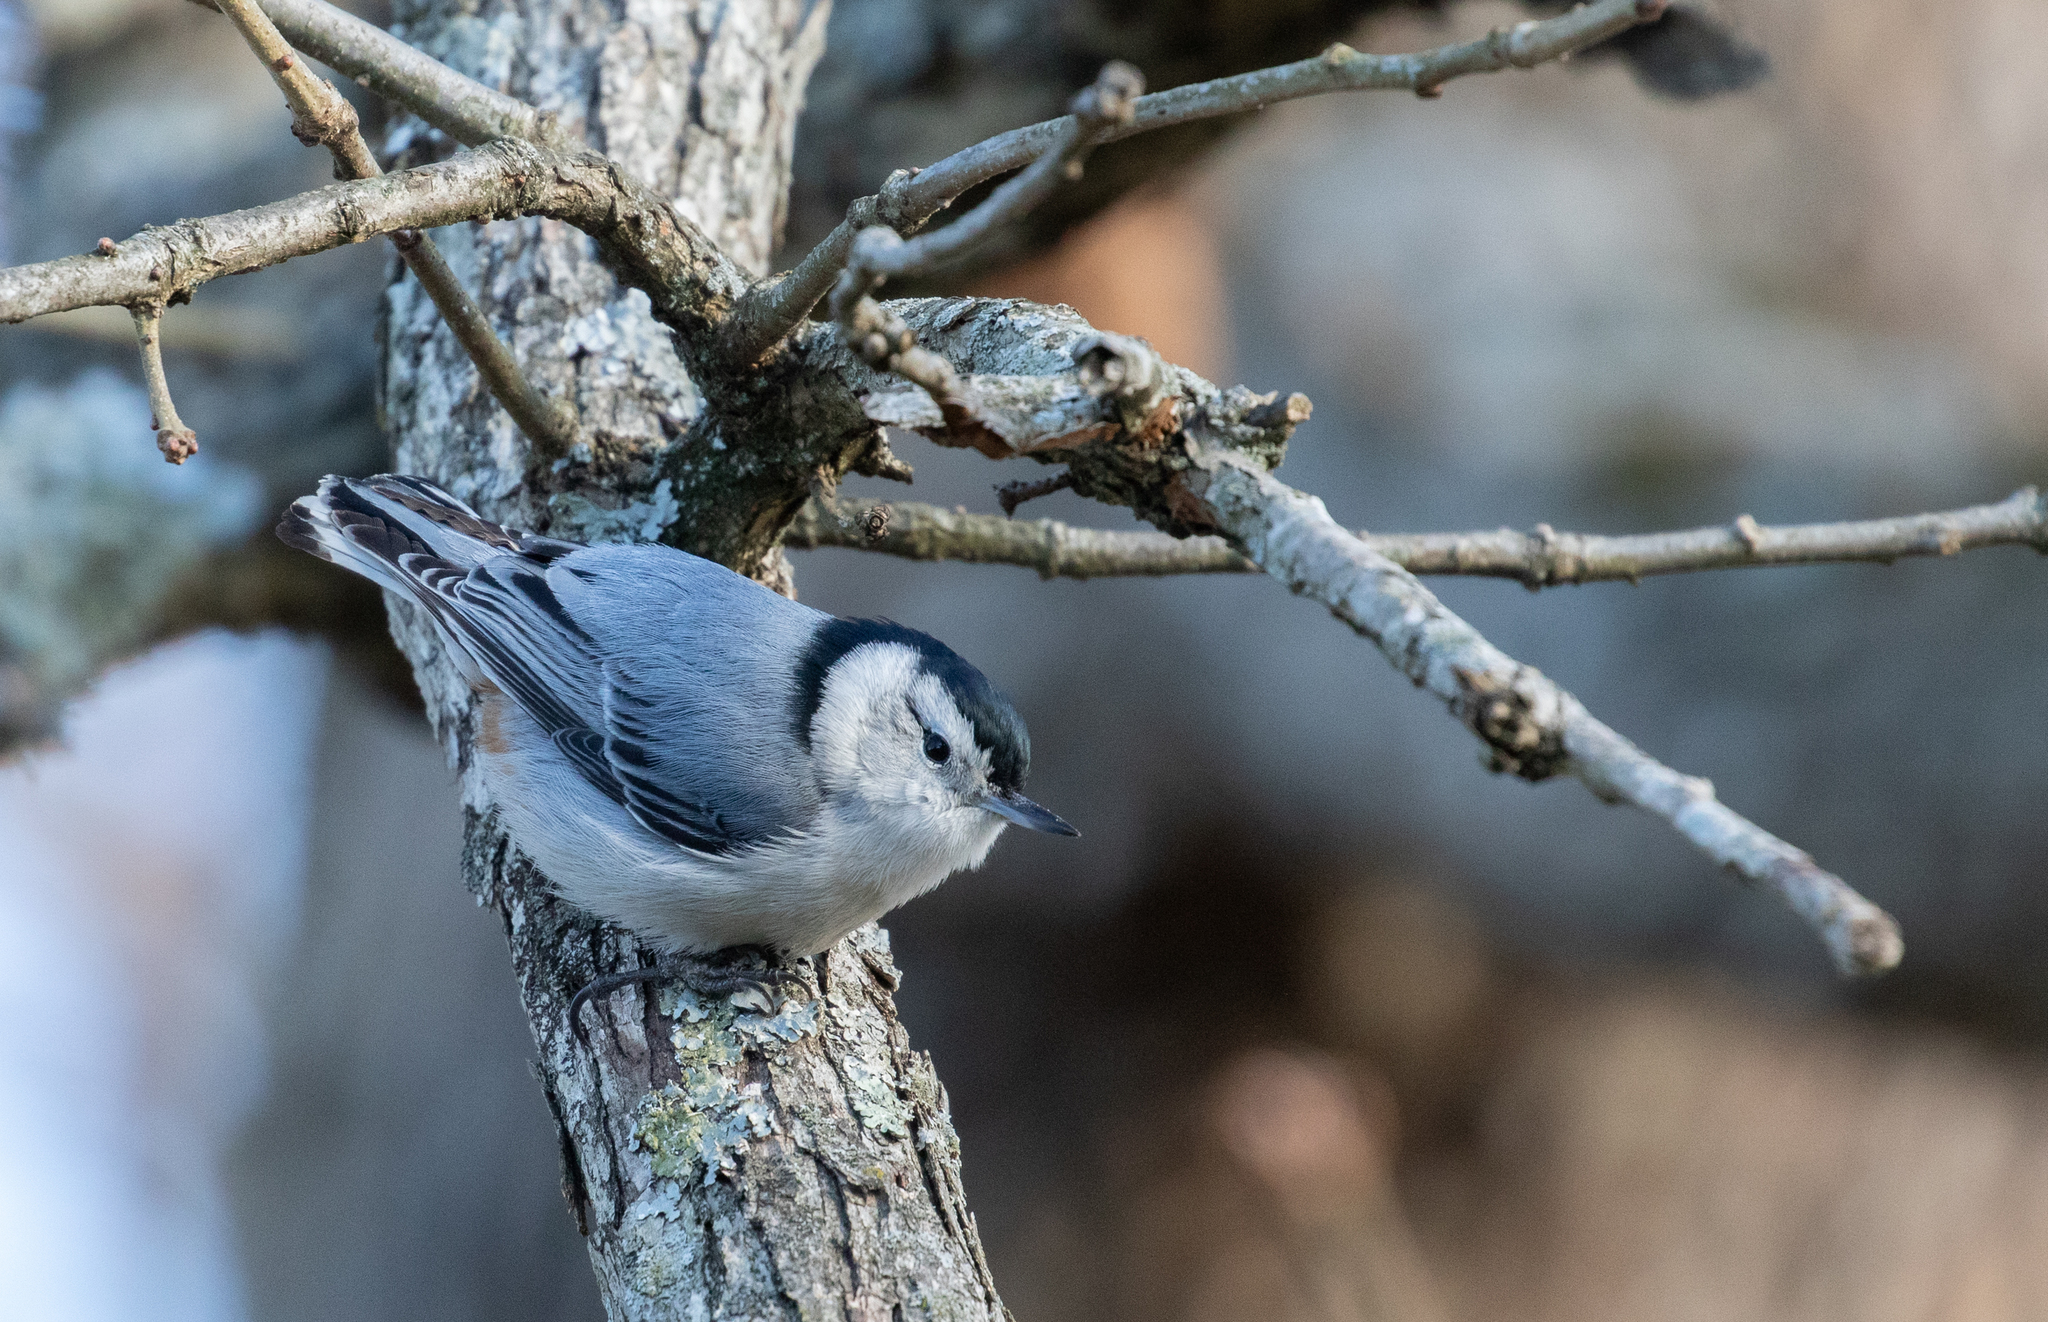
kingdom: Animalia
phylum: Chordata
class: Aves
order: Passeriformes
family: Sittidae
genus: Sitta
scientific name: Sitta carolinensis
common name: White-breasted nuthatch
